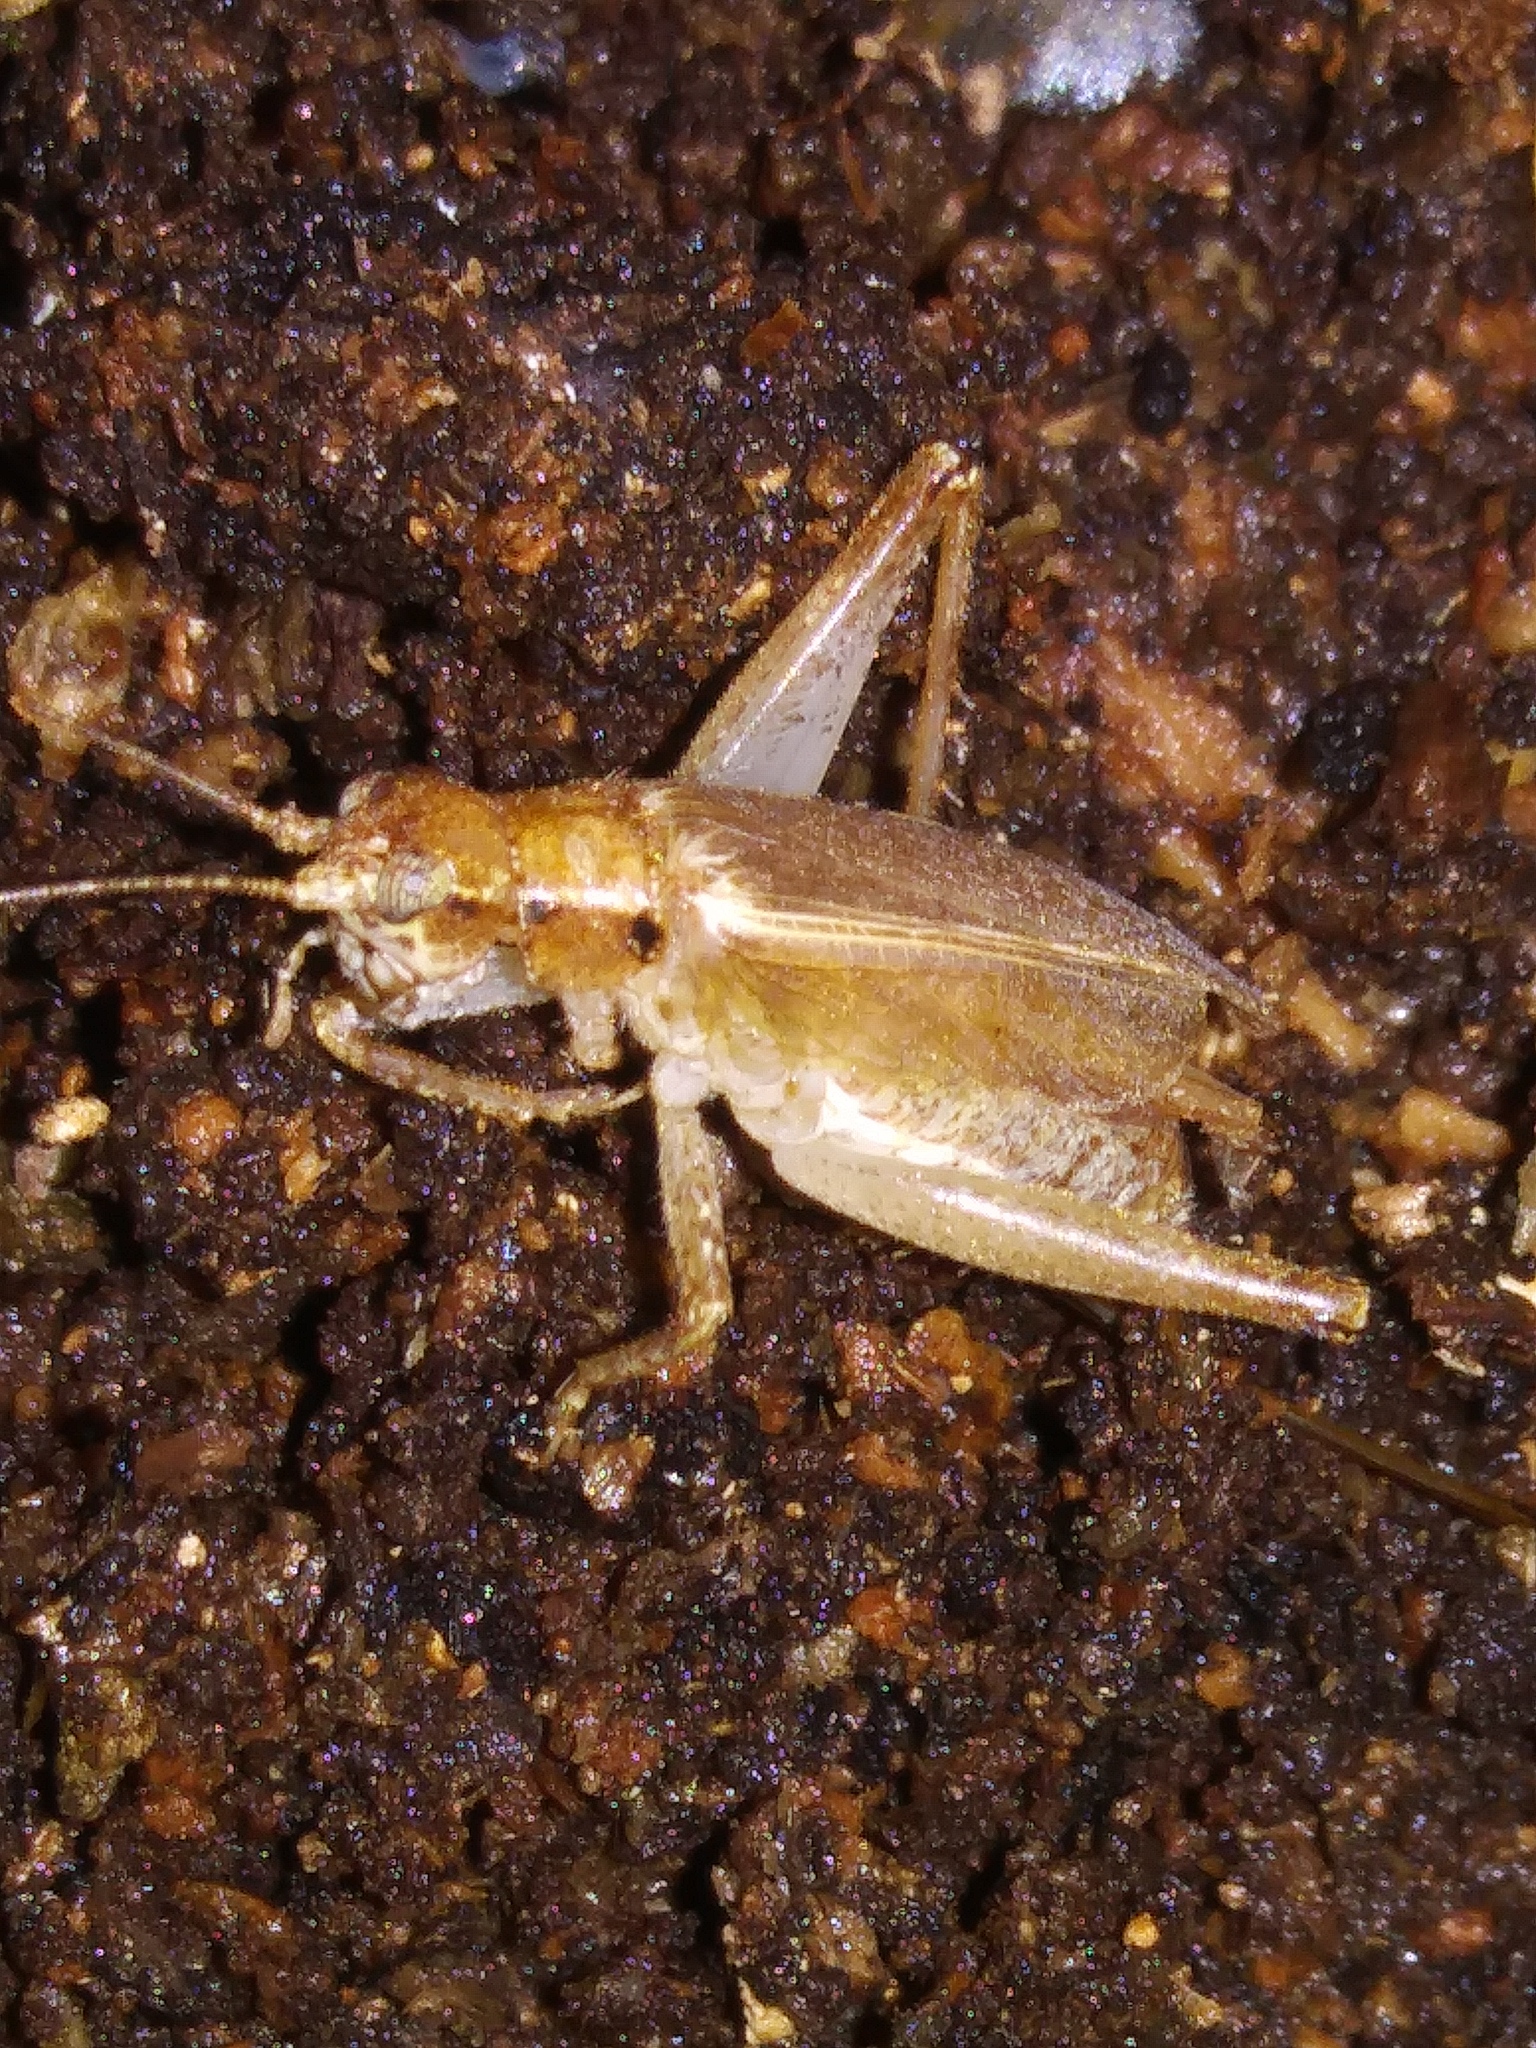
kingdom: Animalia
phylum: Arthropoda
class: Insecta
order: Orthoptera
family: Gryllidae
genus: Hapithus
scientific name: Hapithus saltator
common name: Jumping bush cricket
